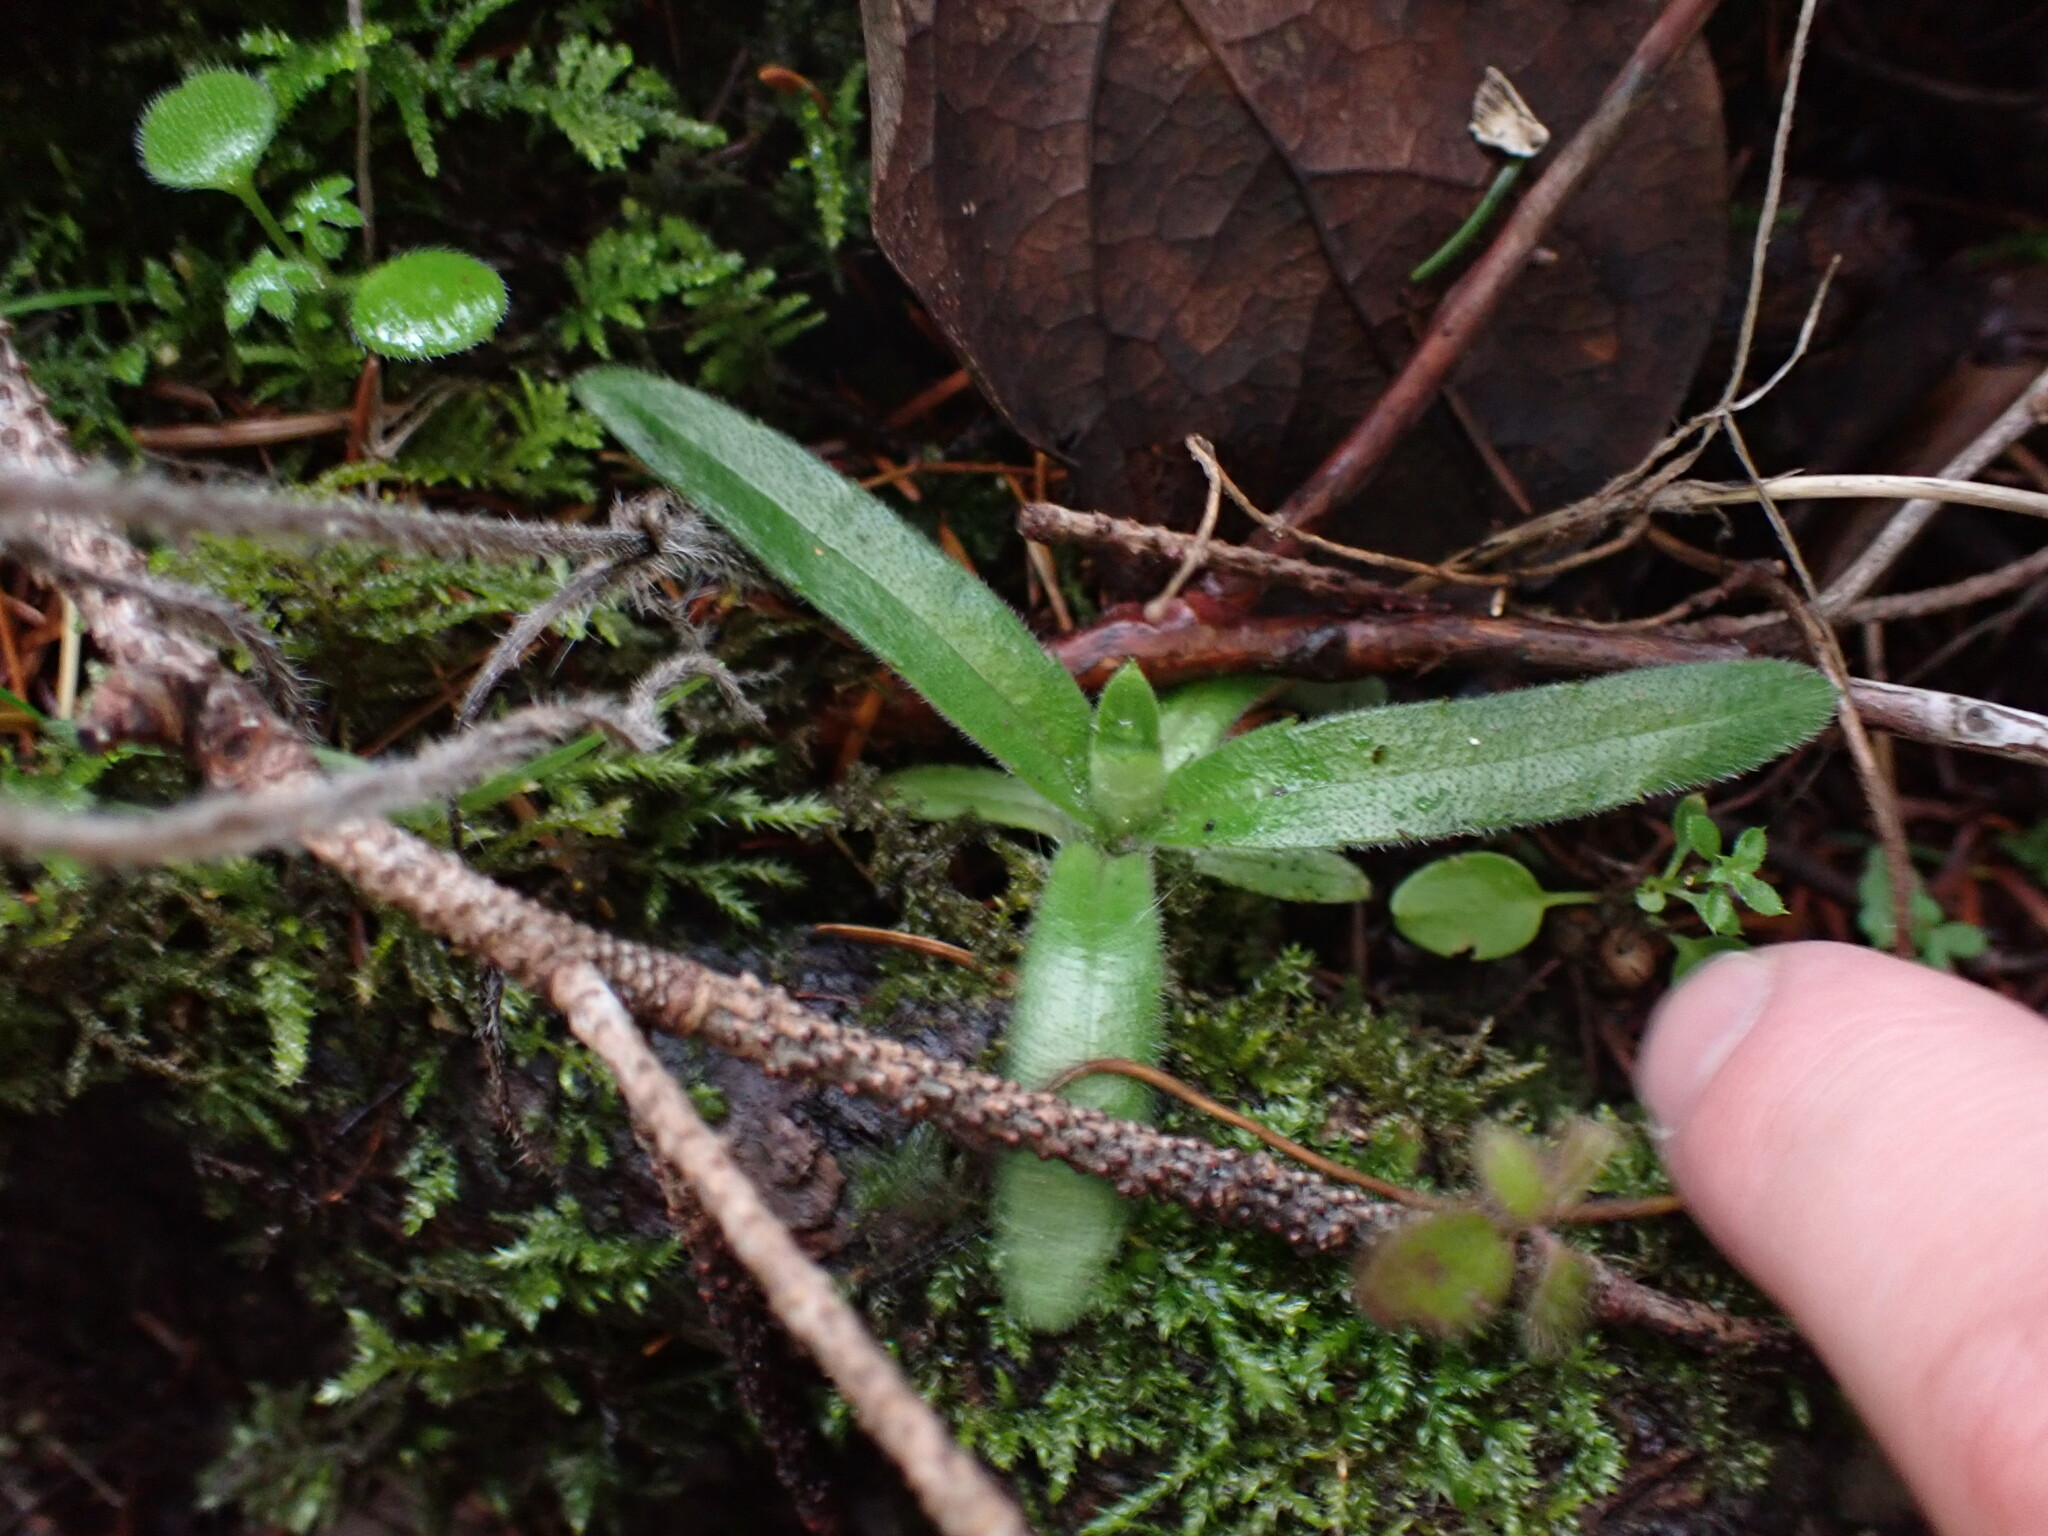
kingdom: Plantae
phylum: Tracheophyta
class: Magnoliopsida
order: Asterales
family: Asteraceae
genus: Anisocarpus
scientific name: Anisocarpus madioides
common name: Woodland madia
